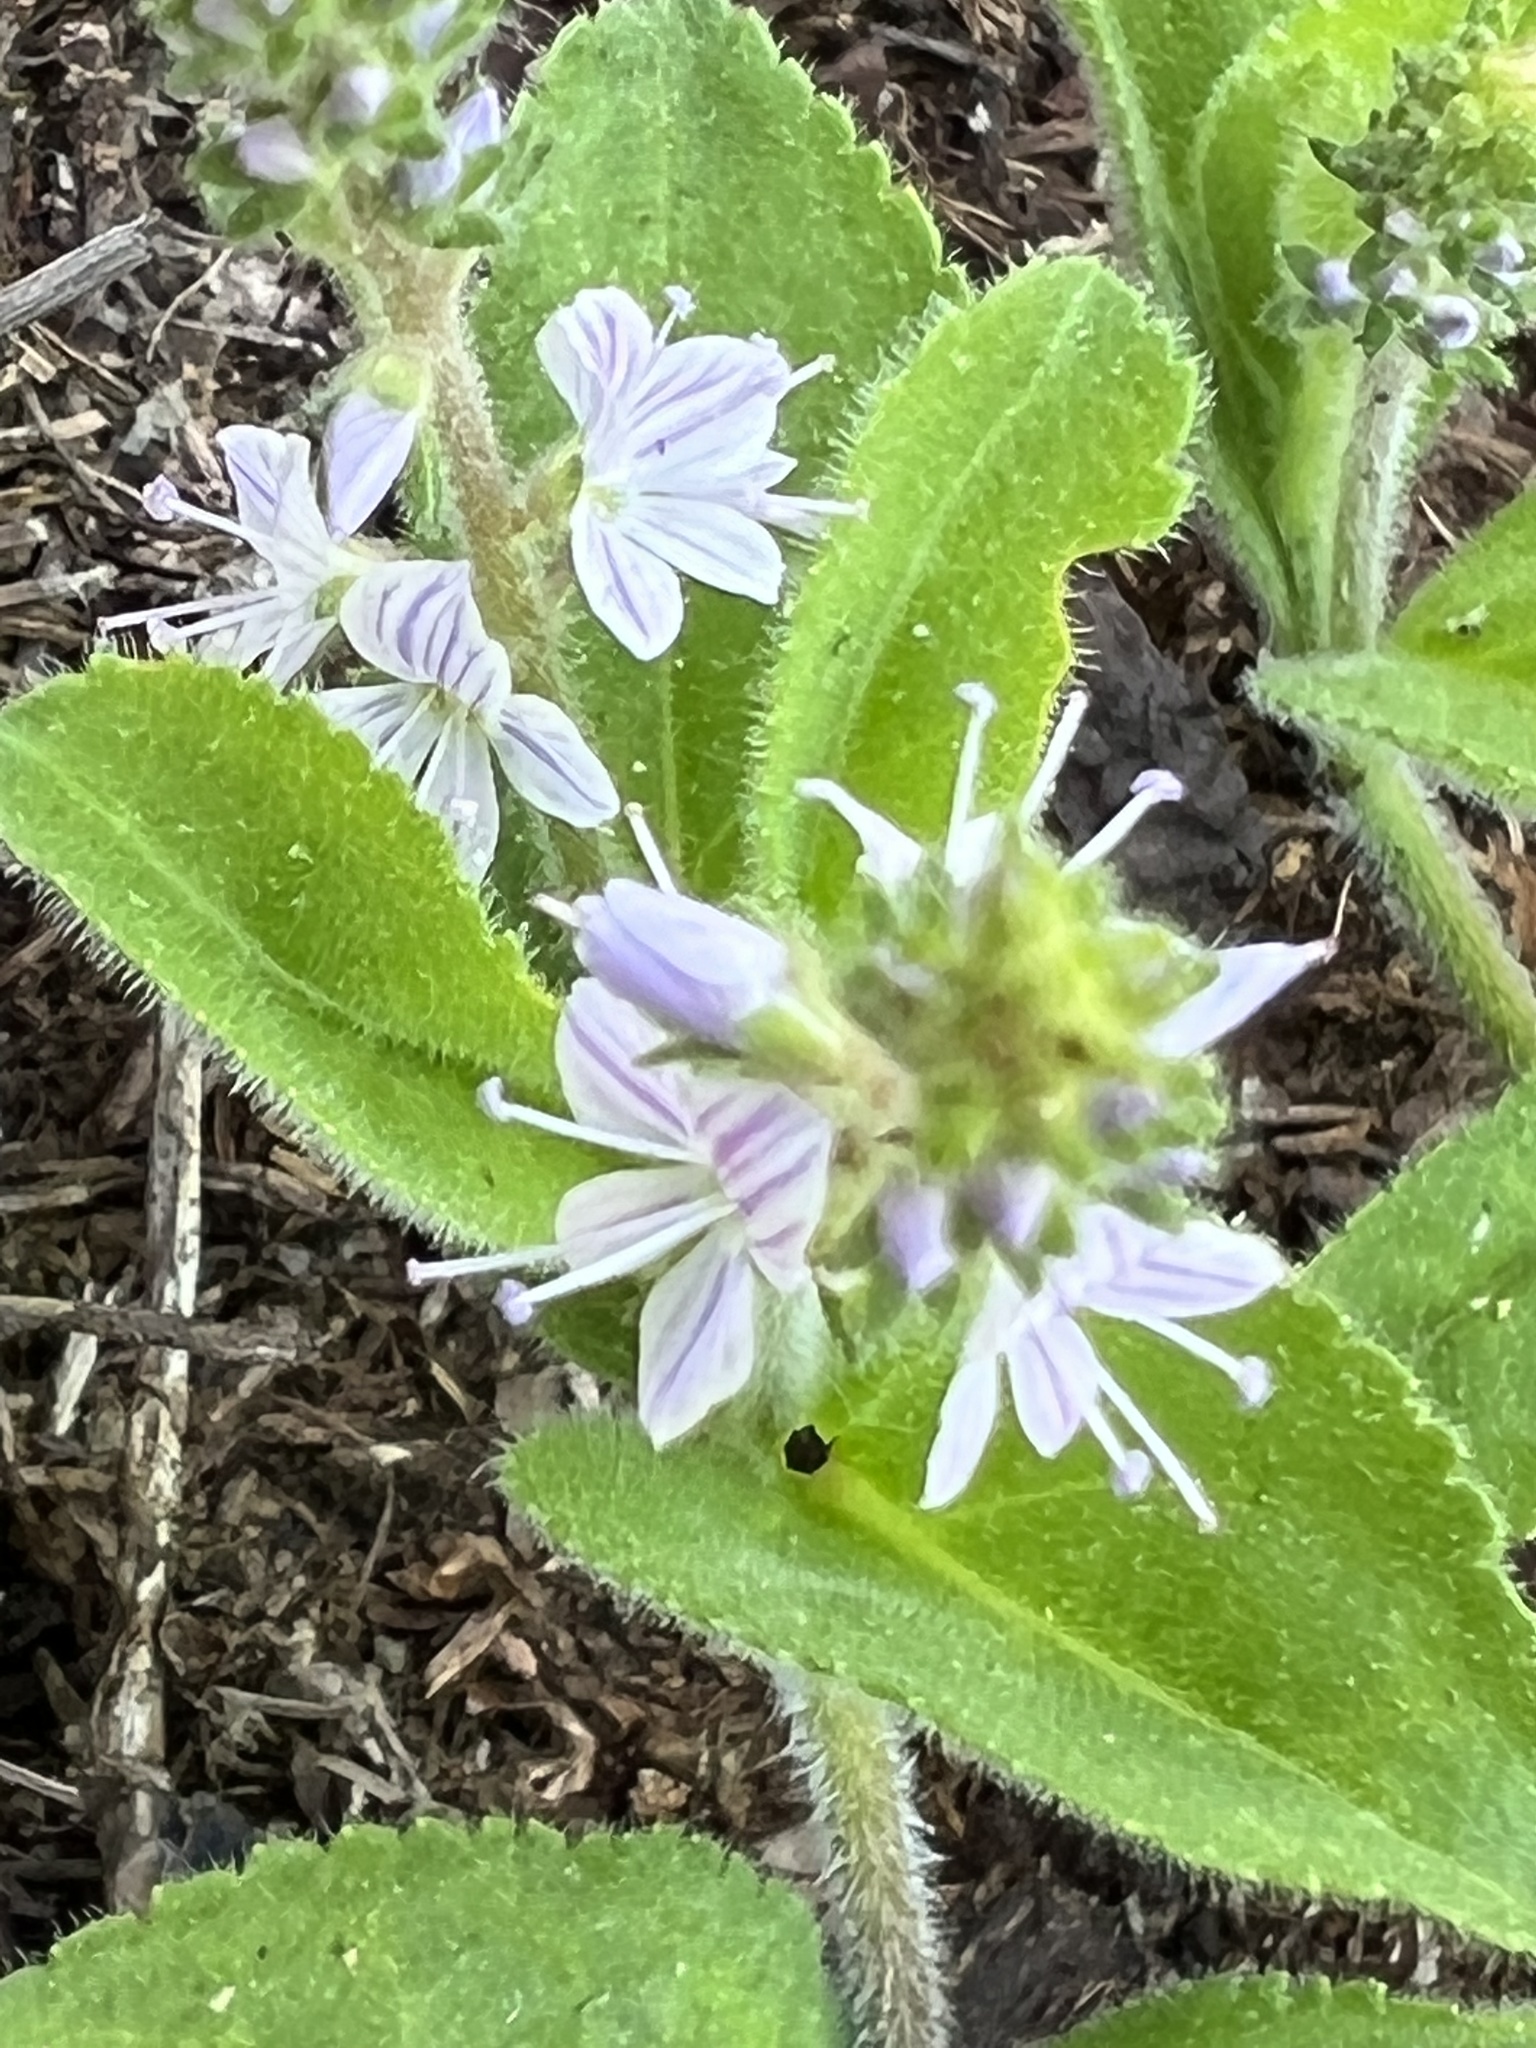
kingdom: Plantae
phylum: Tracheophyta
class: Magnoliopsida
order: Lamiales
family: Plantaginaceae
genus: Veronica
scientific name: Veronica officinalis
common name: Common speedwell
